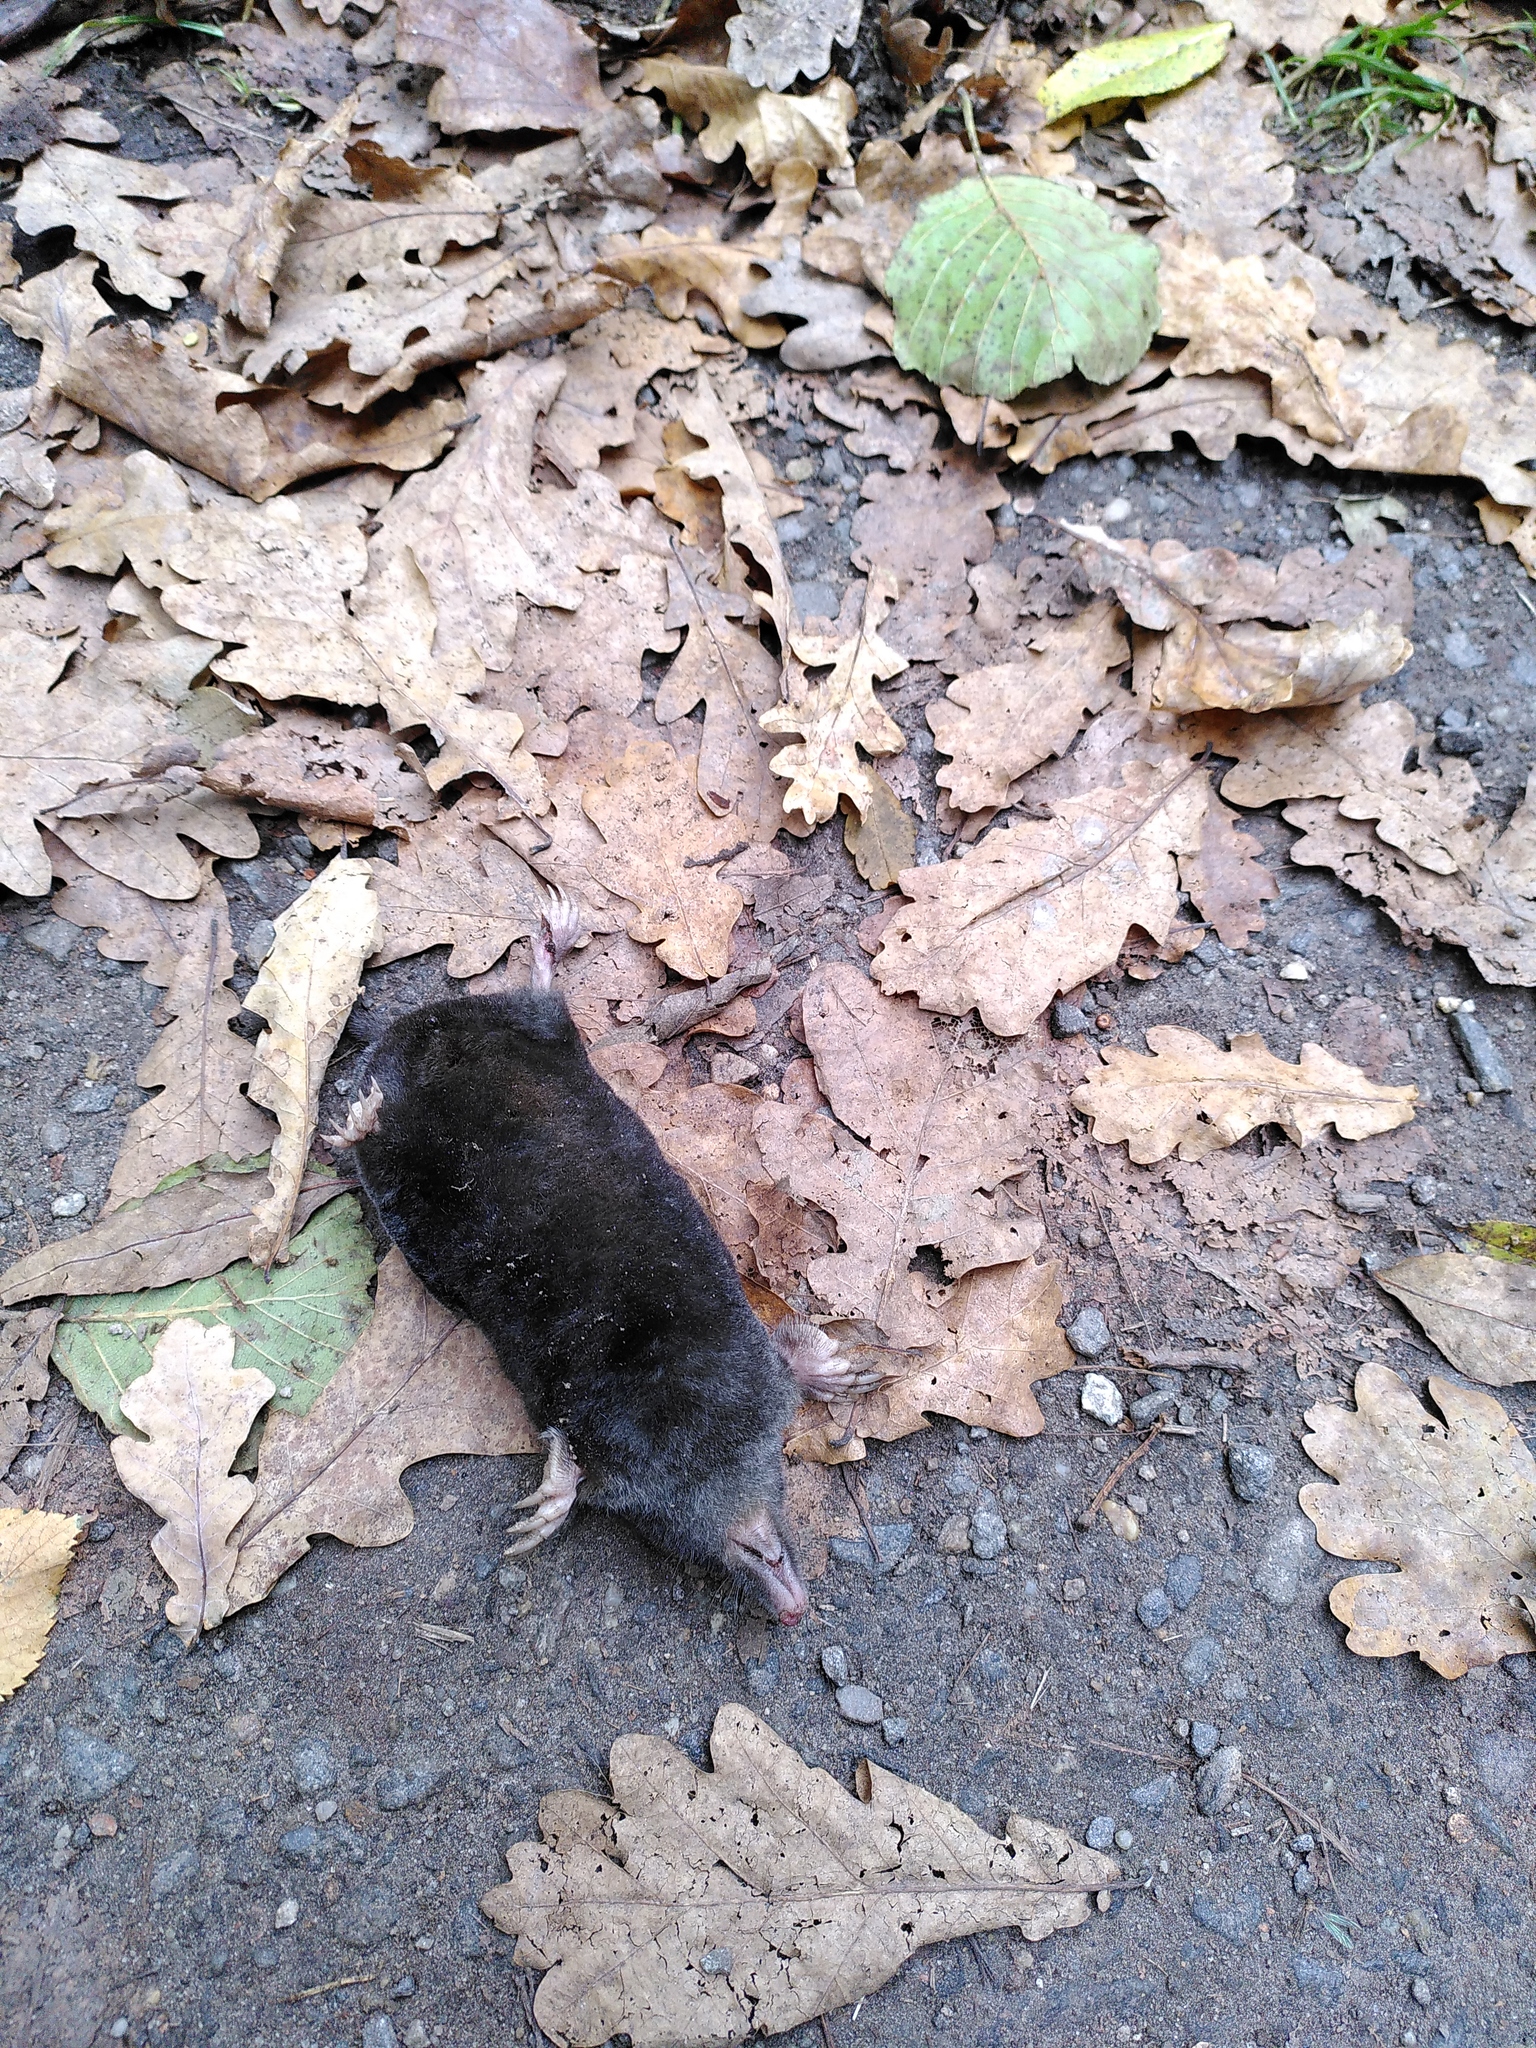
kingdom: Animalia
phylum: Chordata
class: Mammalia
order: Soricomorpha
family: Talpidae
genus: Talpa
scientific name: Talpa europaea
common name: European mole
